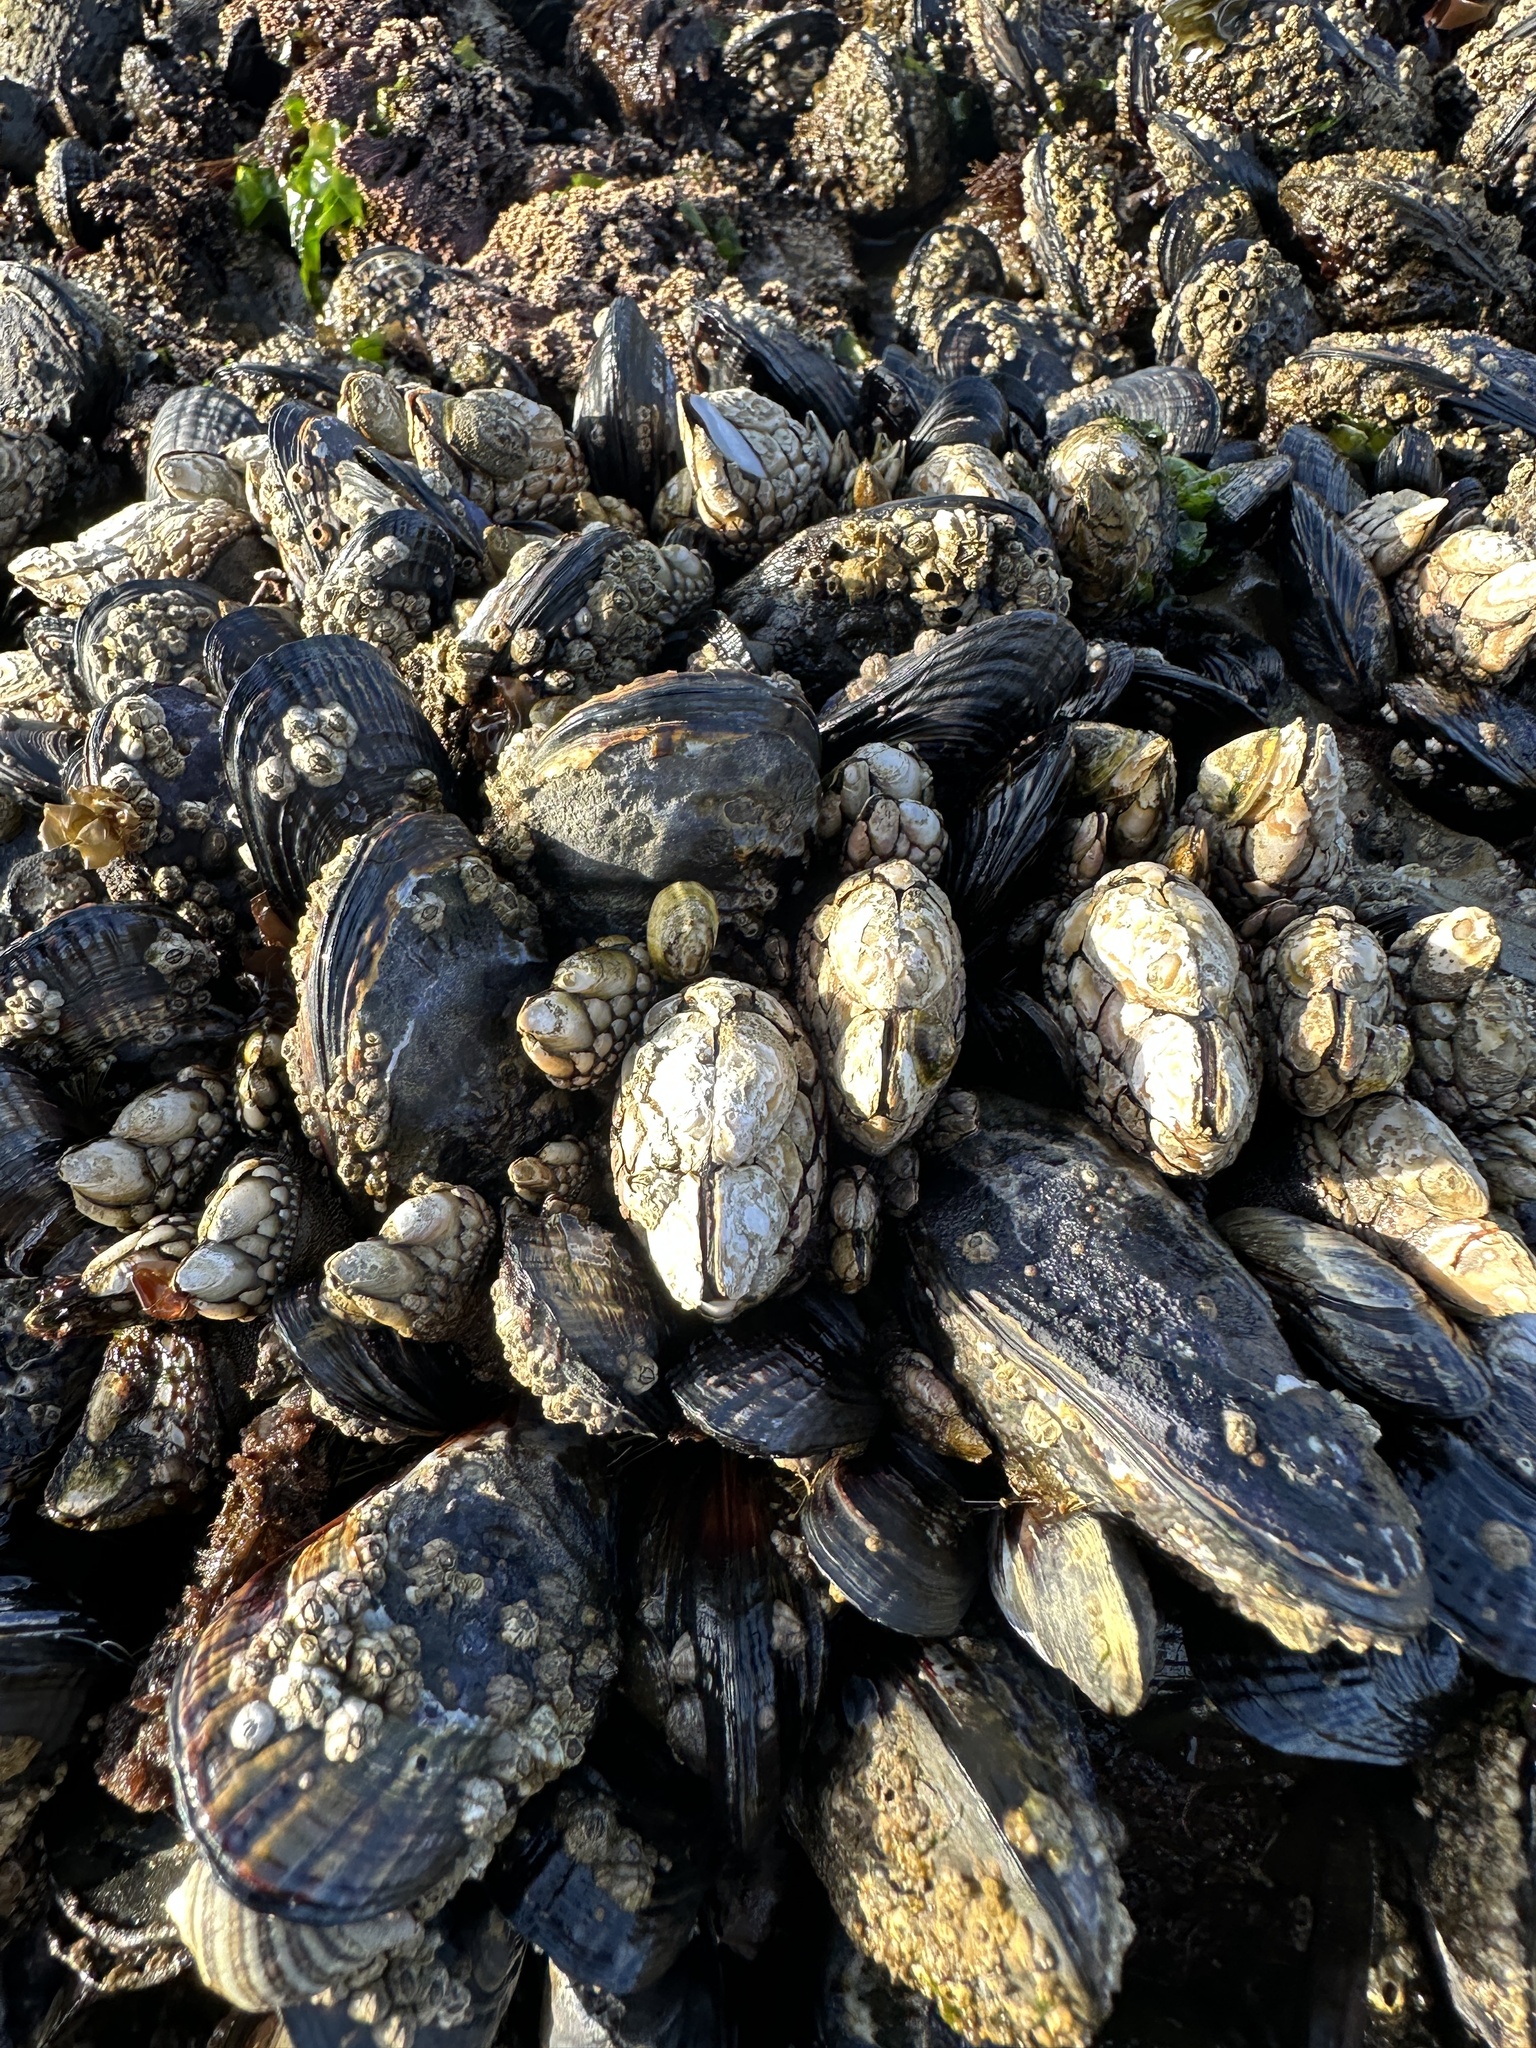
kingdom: Animalia
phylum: Mollusca
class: Bivalvia
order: Mytilida
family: Mytilidae
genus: Mytilus
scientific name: Mytilus californianus
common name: California mussel
